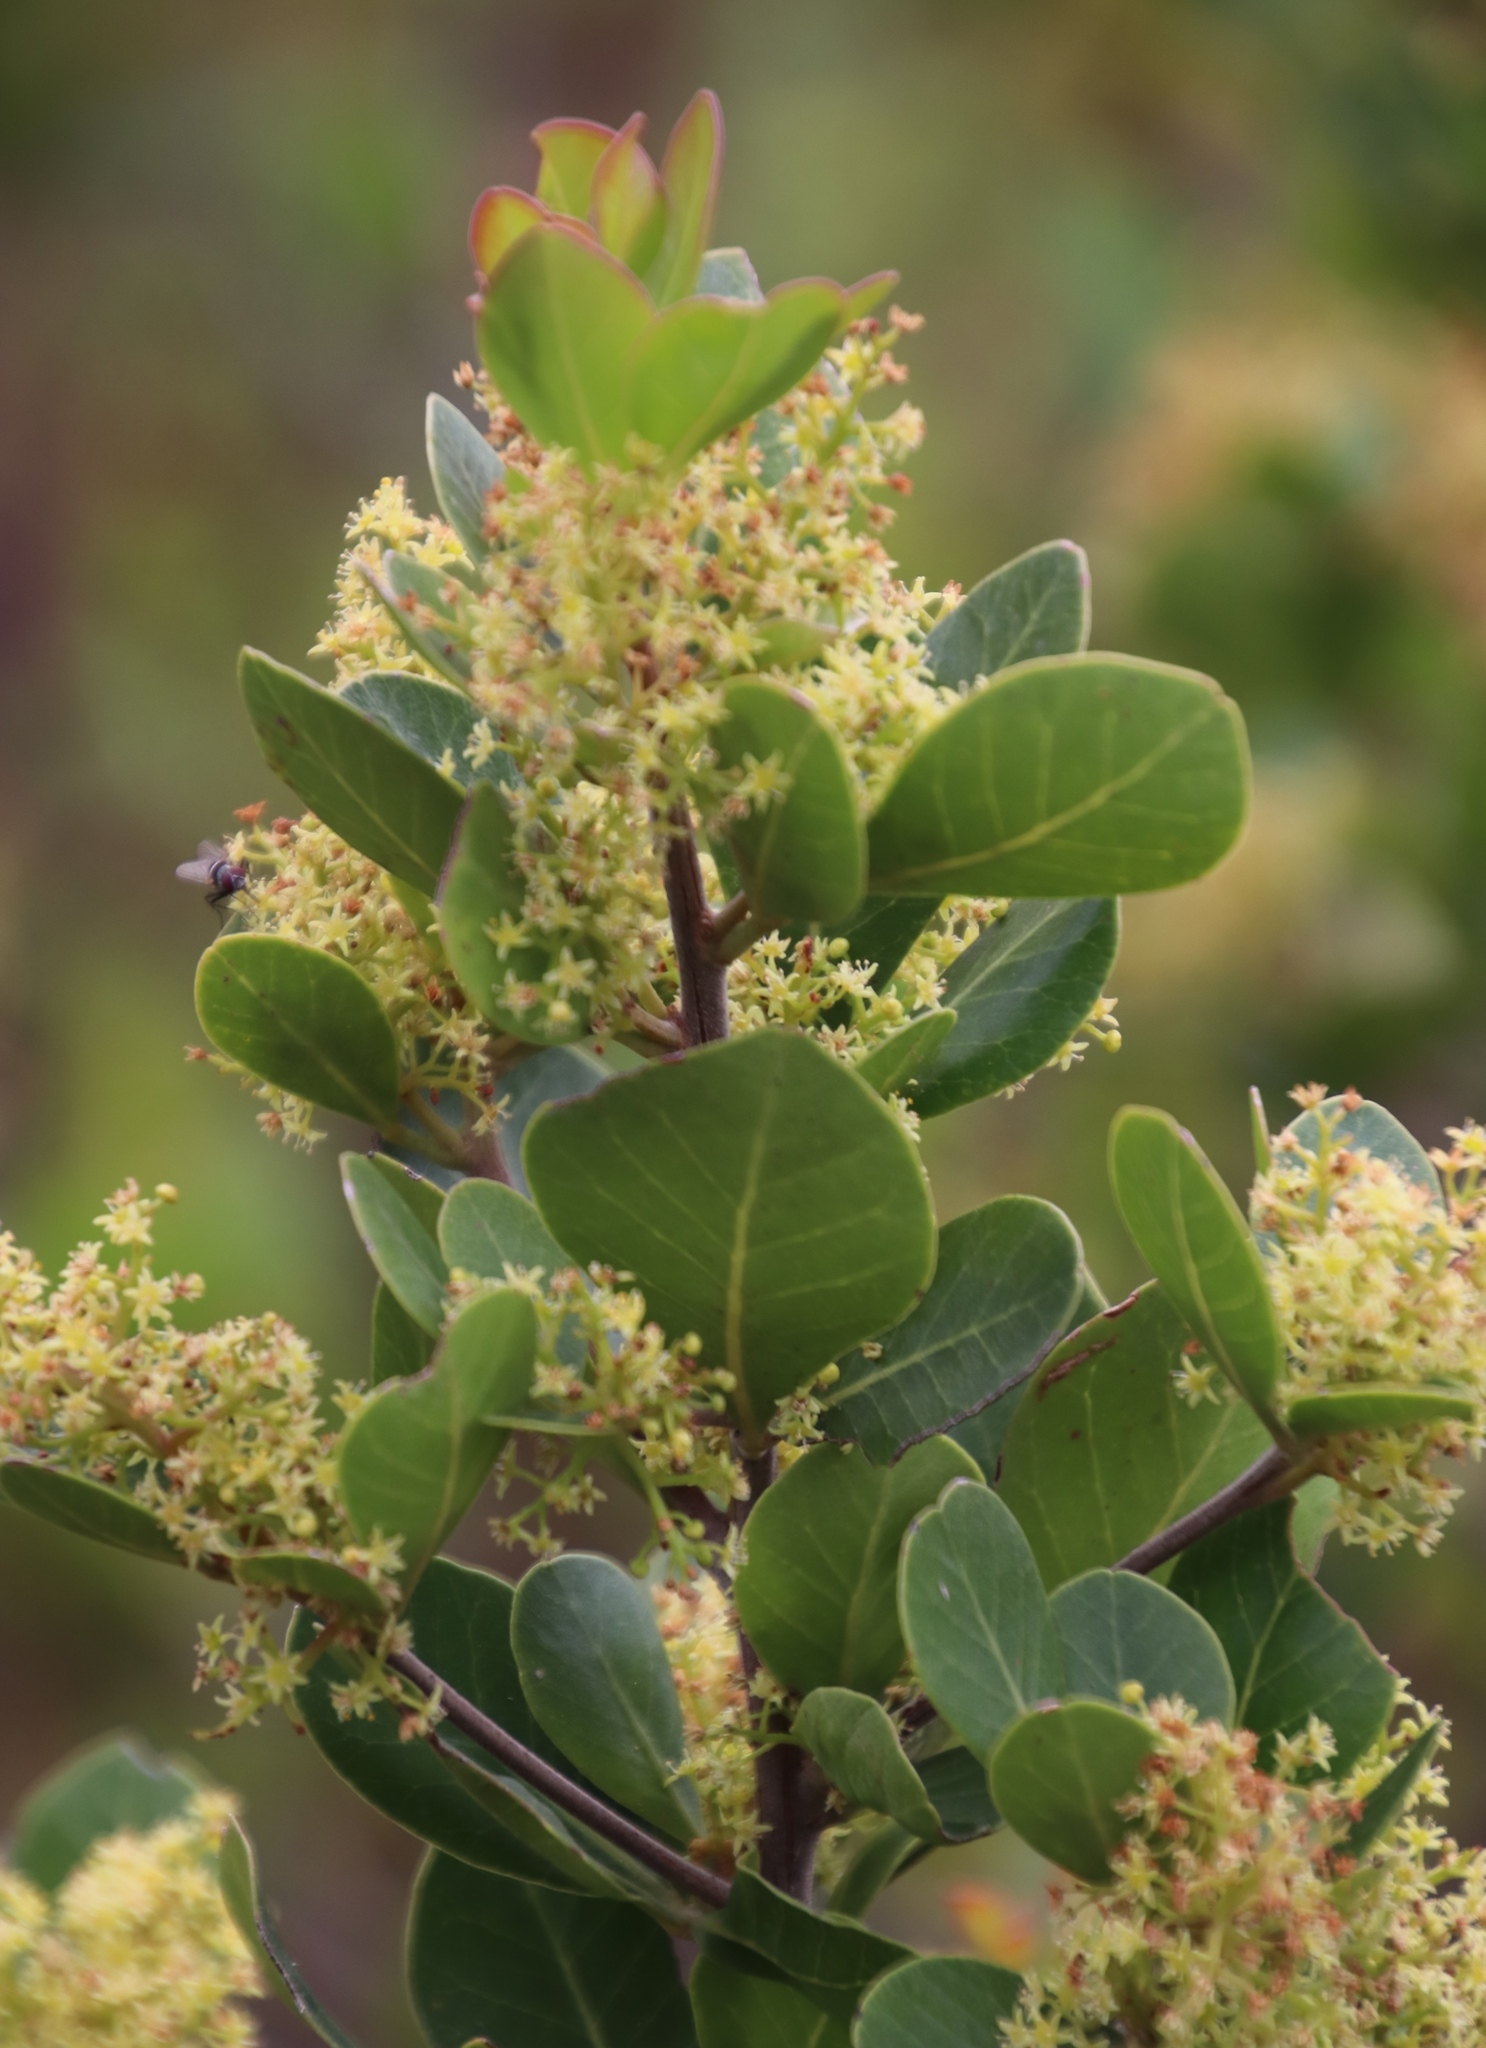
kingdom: Plantae
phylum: Tracheophyta
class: Magnoliopsida
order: Sapindales
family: Anacardiaceae
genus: Searsia
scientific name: Searsia lucida
